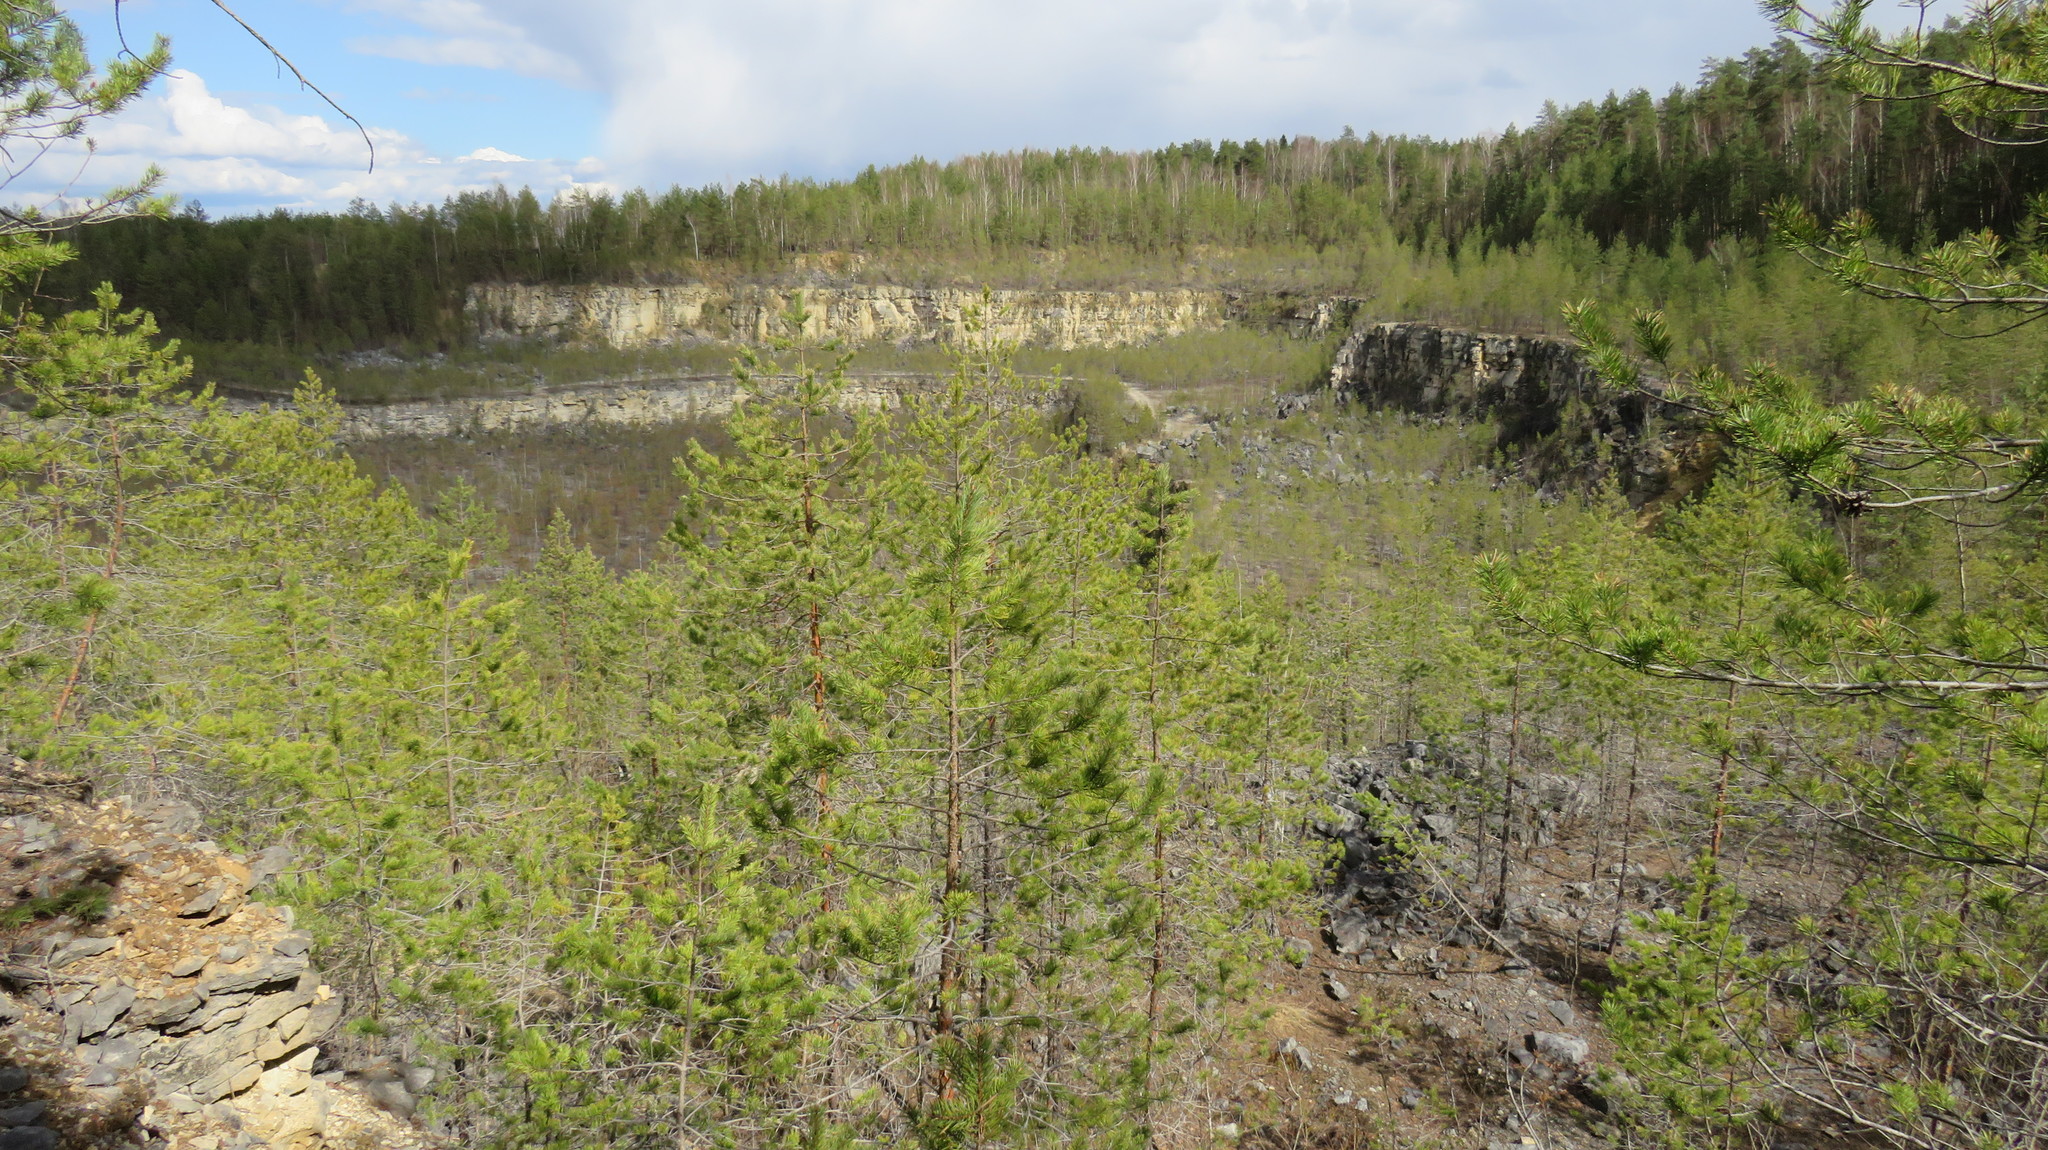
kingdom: Plantae
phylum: Tracheophyta
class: Pinopsida
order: Pinales
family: Pinaceae
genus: Pinus
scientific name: Pinus sylvestris
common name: Scots pine
